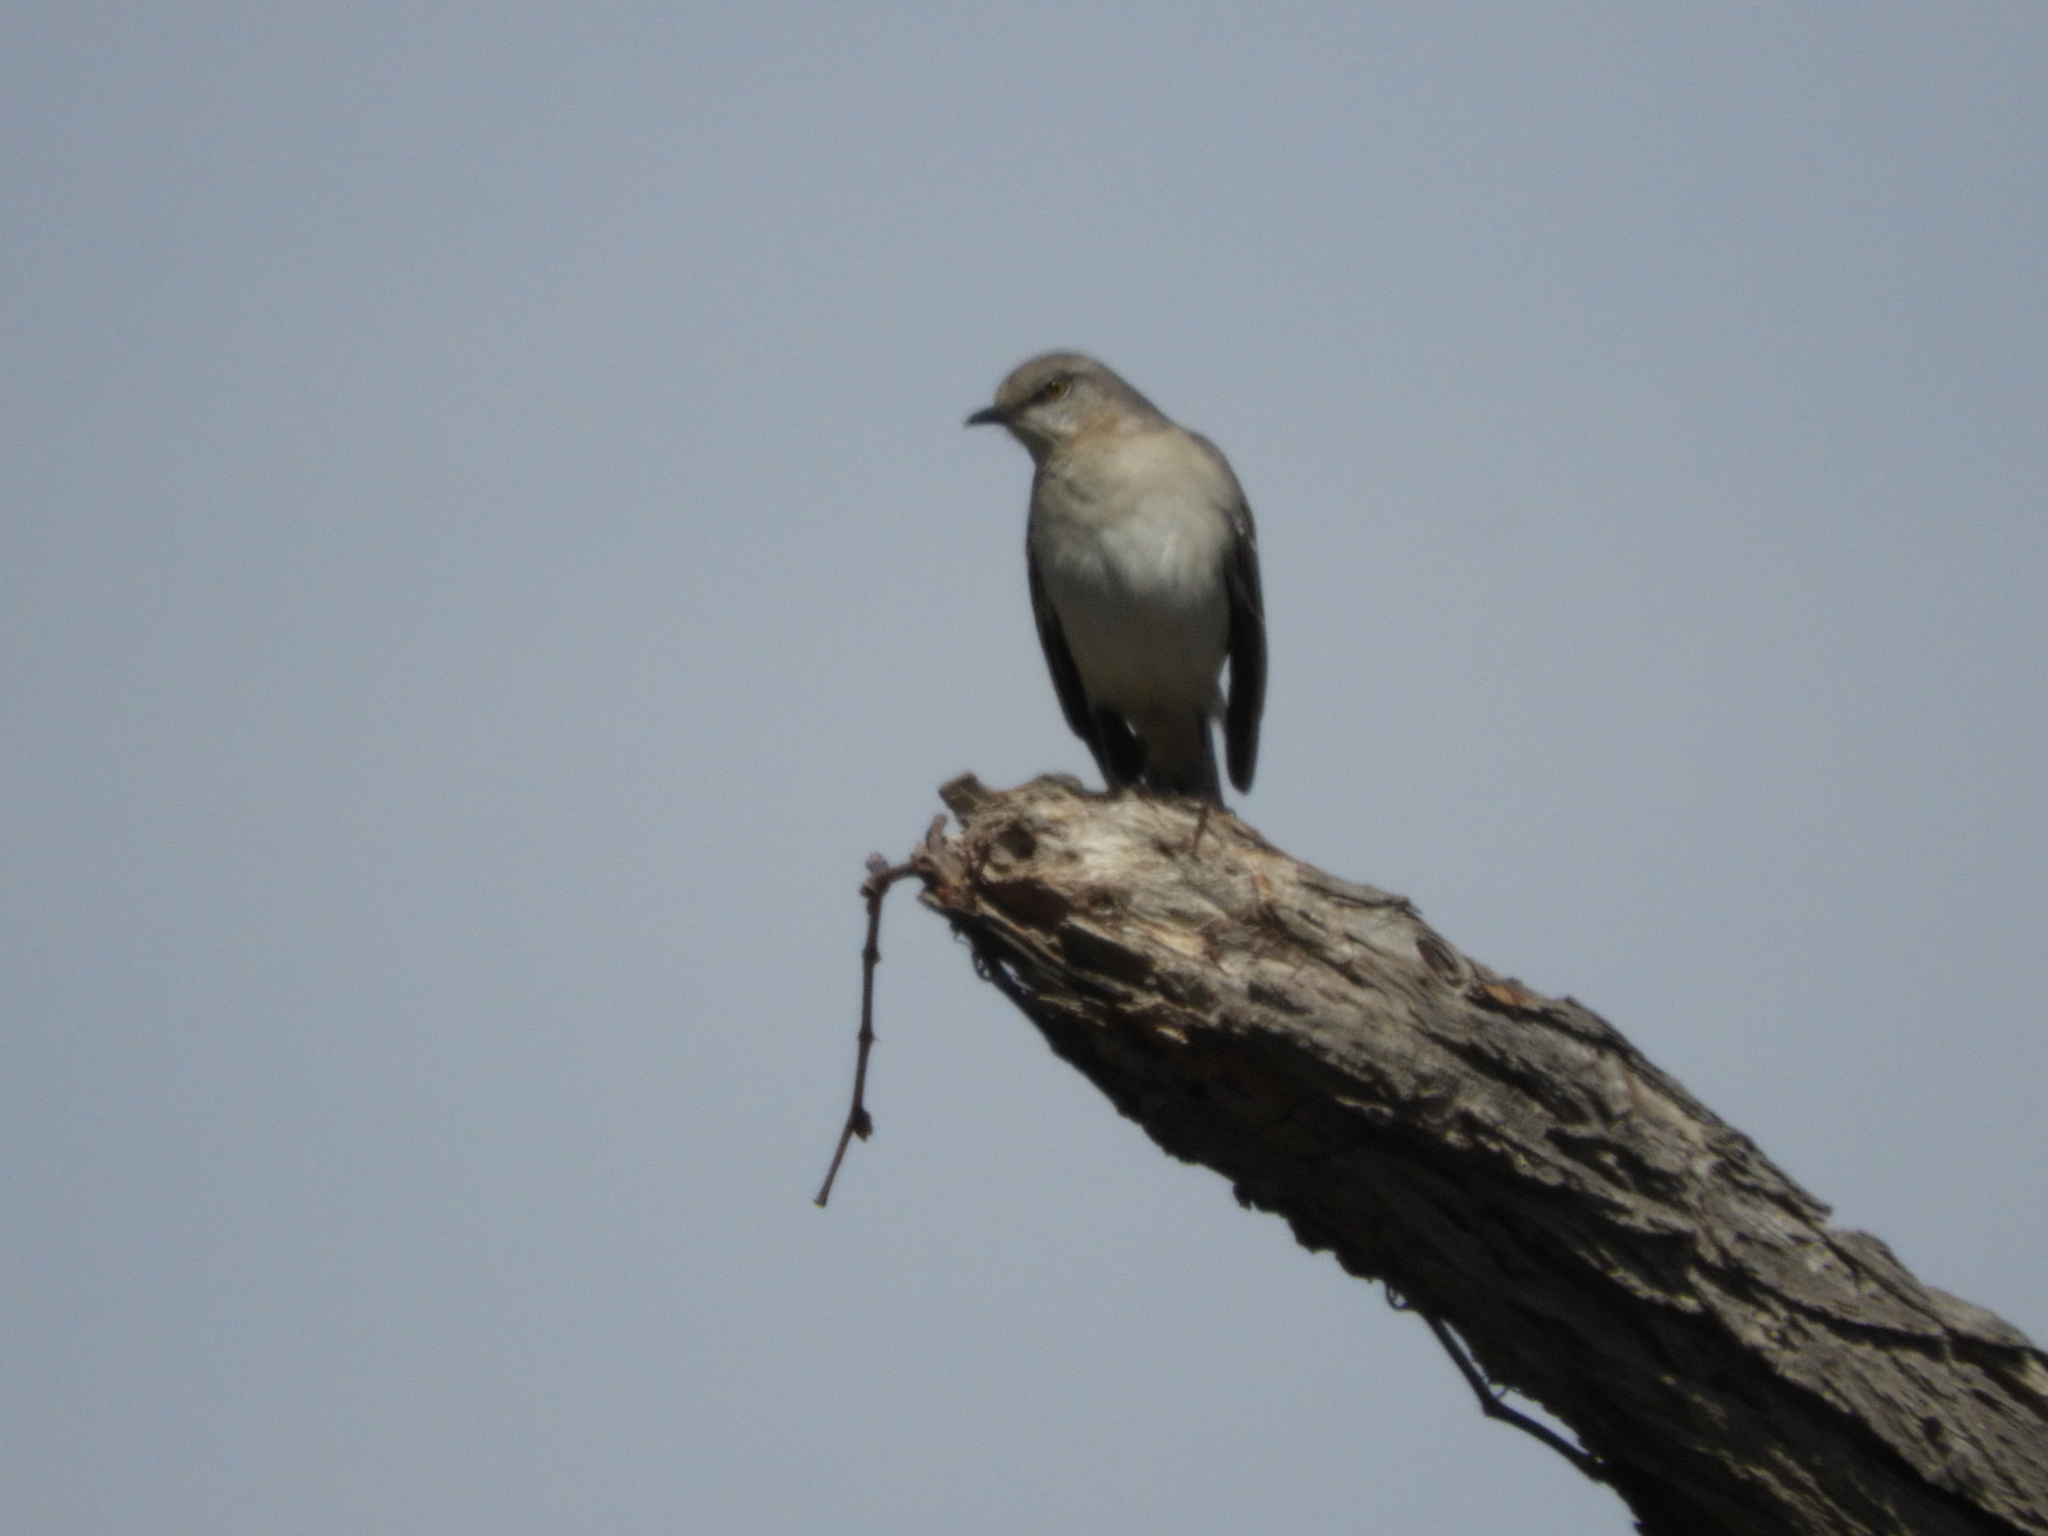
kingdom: Animalia
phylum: Chordata
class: Aves
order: Passeriformes
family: Mimidae
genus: Mimus
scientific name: Mimus polyglottos
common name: Northern mockingbird
